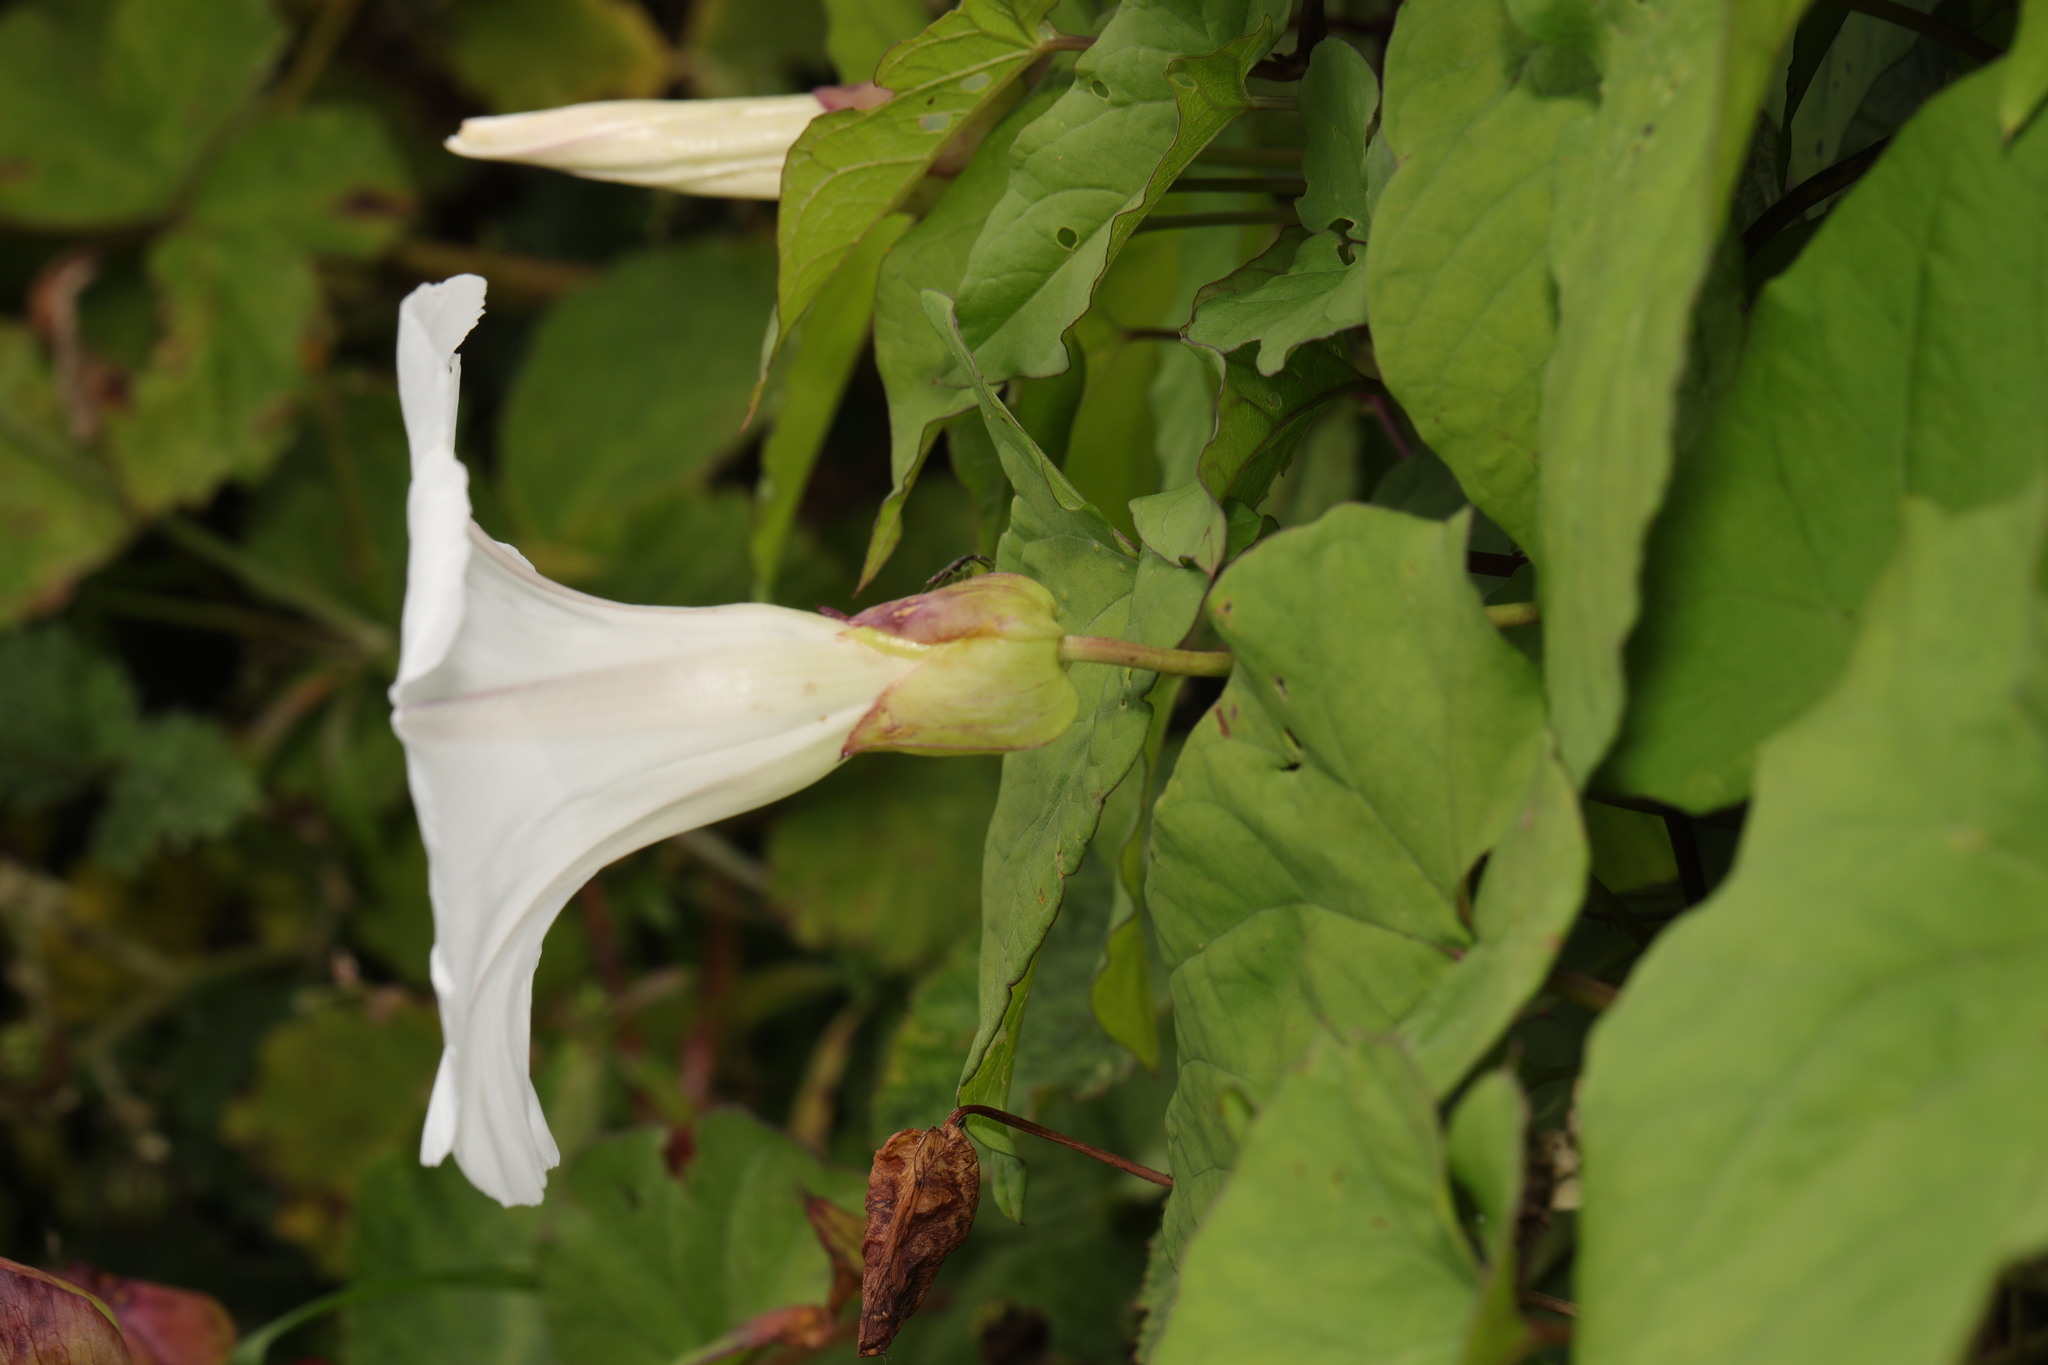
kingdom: Plantae
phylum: Tracheophyta
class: Magnoliopsida
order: Solanales
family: Convolvulaceae
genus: Calystegia
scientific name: Calystegia silvatica
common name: Large bindweed
